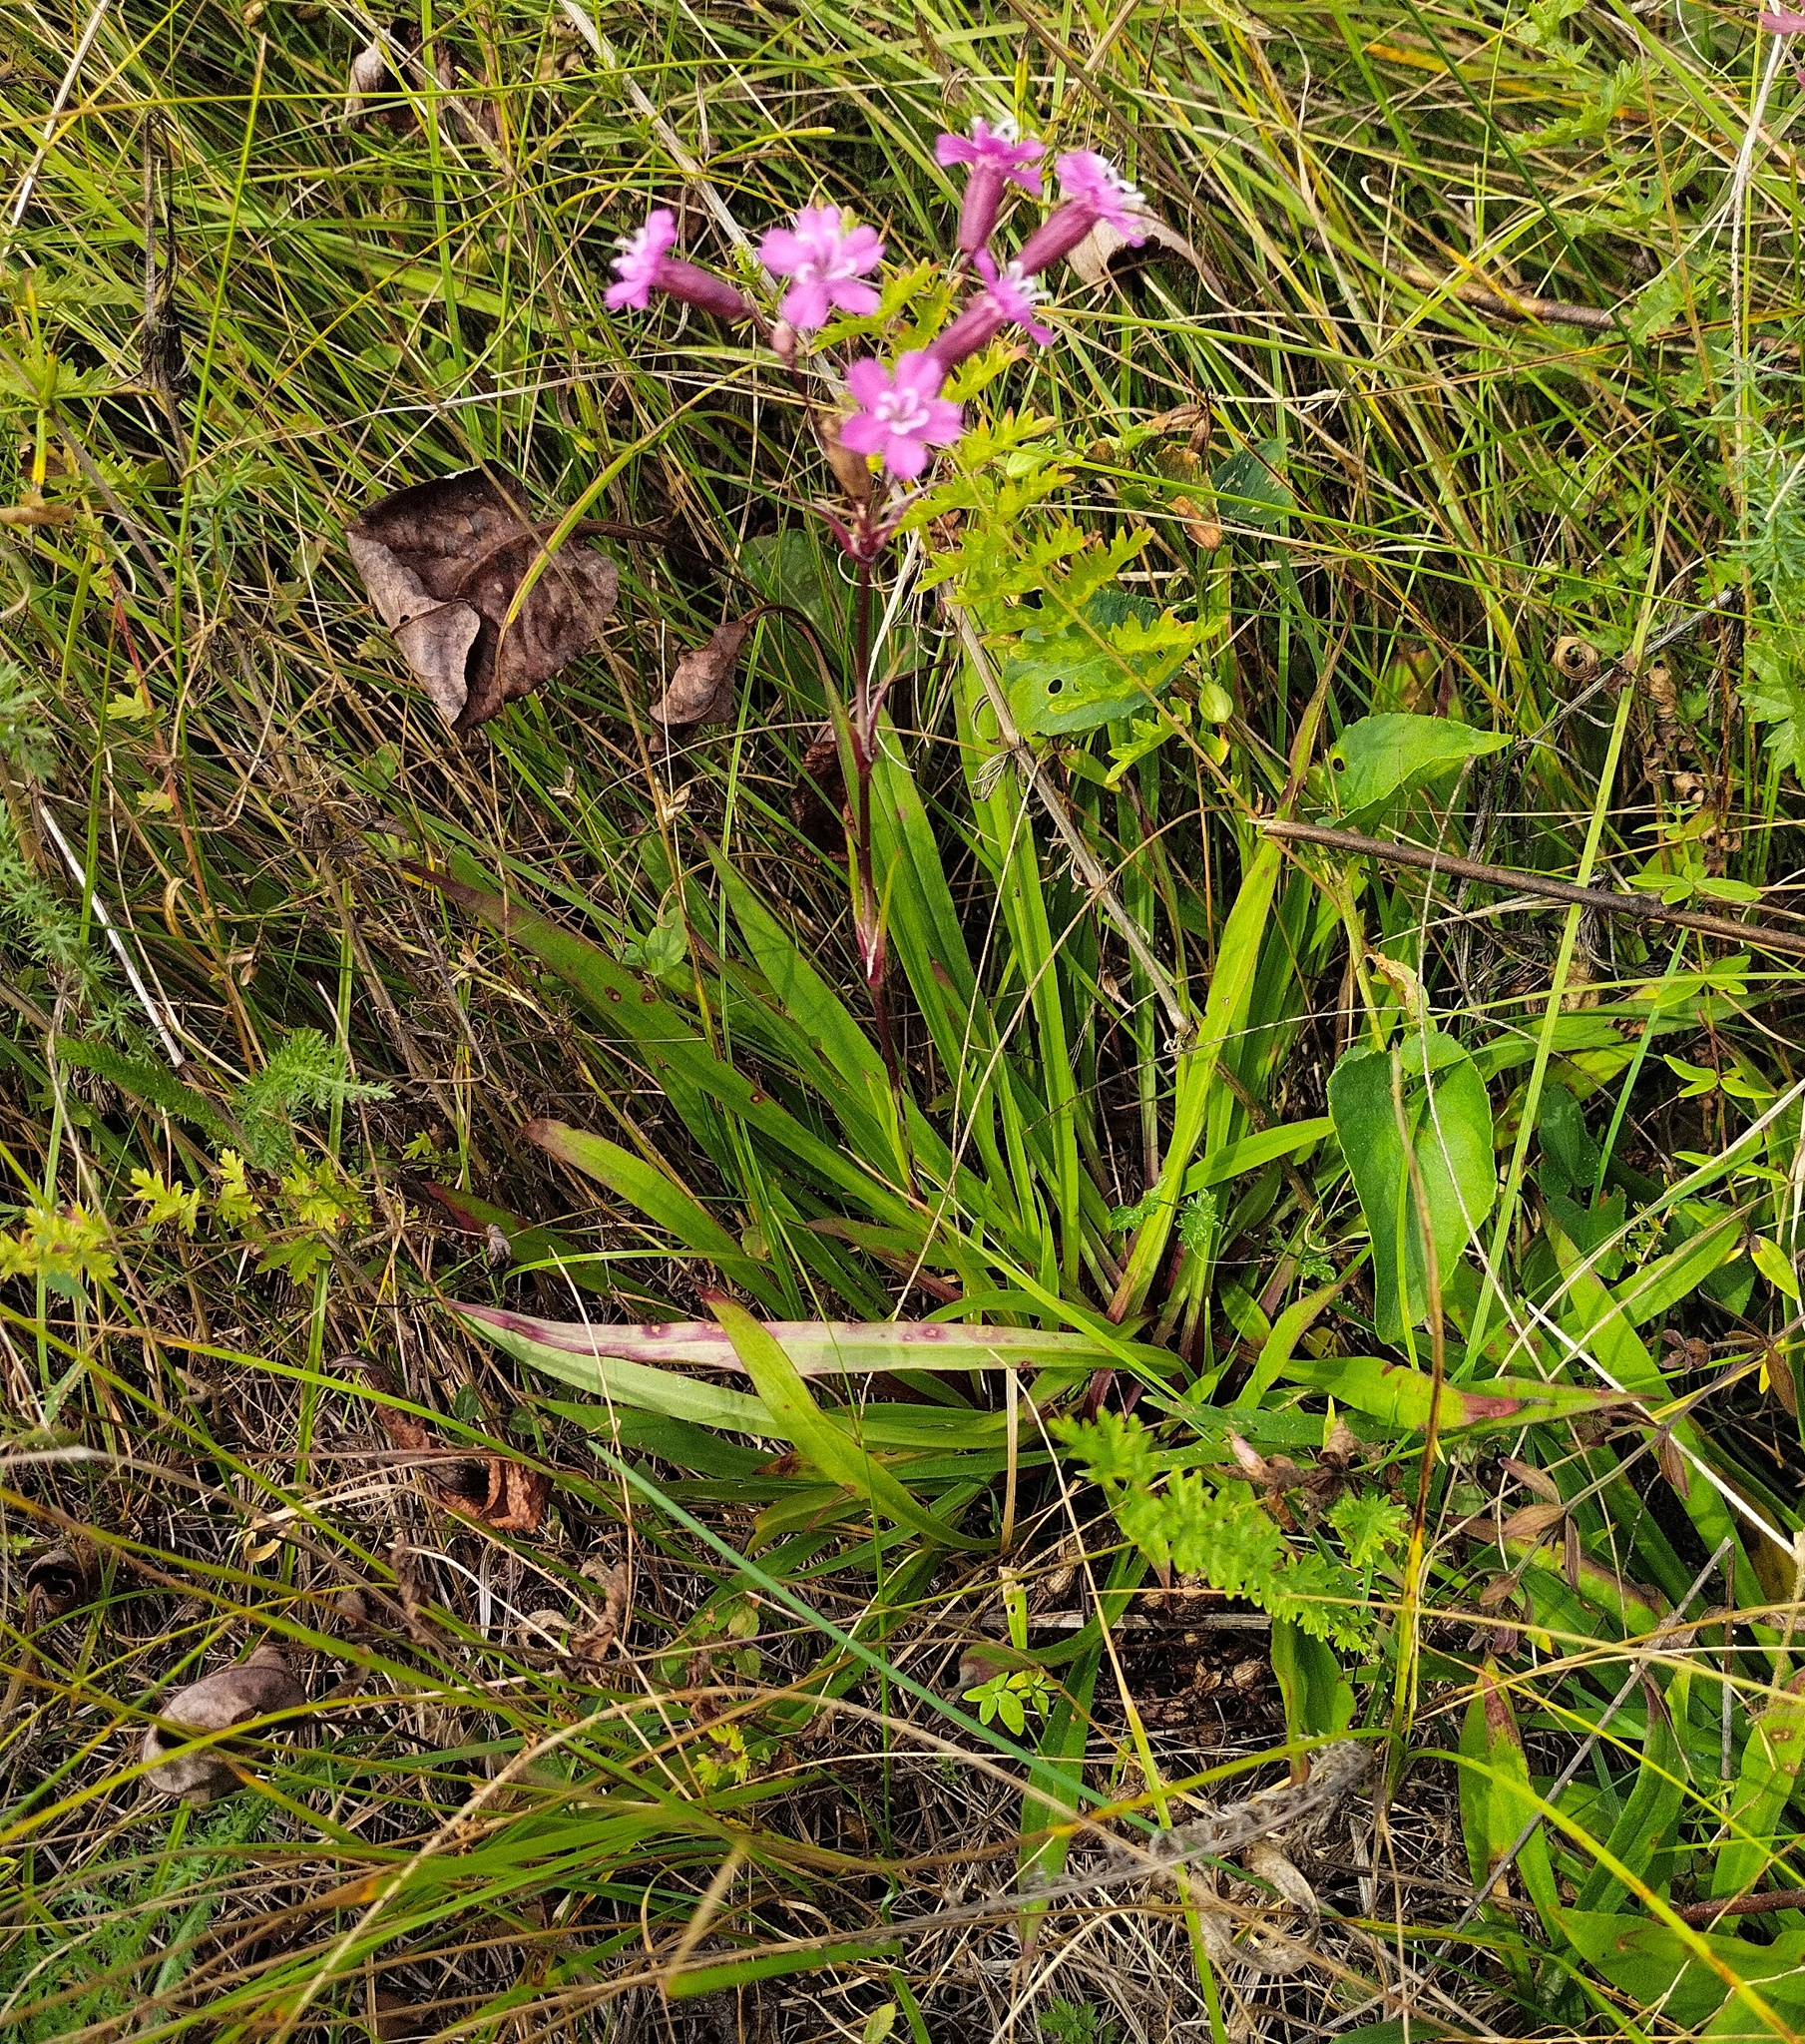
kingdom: Plantae
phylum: Tracheophyta
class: Magnoliopsida
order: Caryophyllales
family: Caryophyllaceae
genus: Viscaria
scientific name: Viscaria vulgaris
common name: Clammy campion
